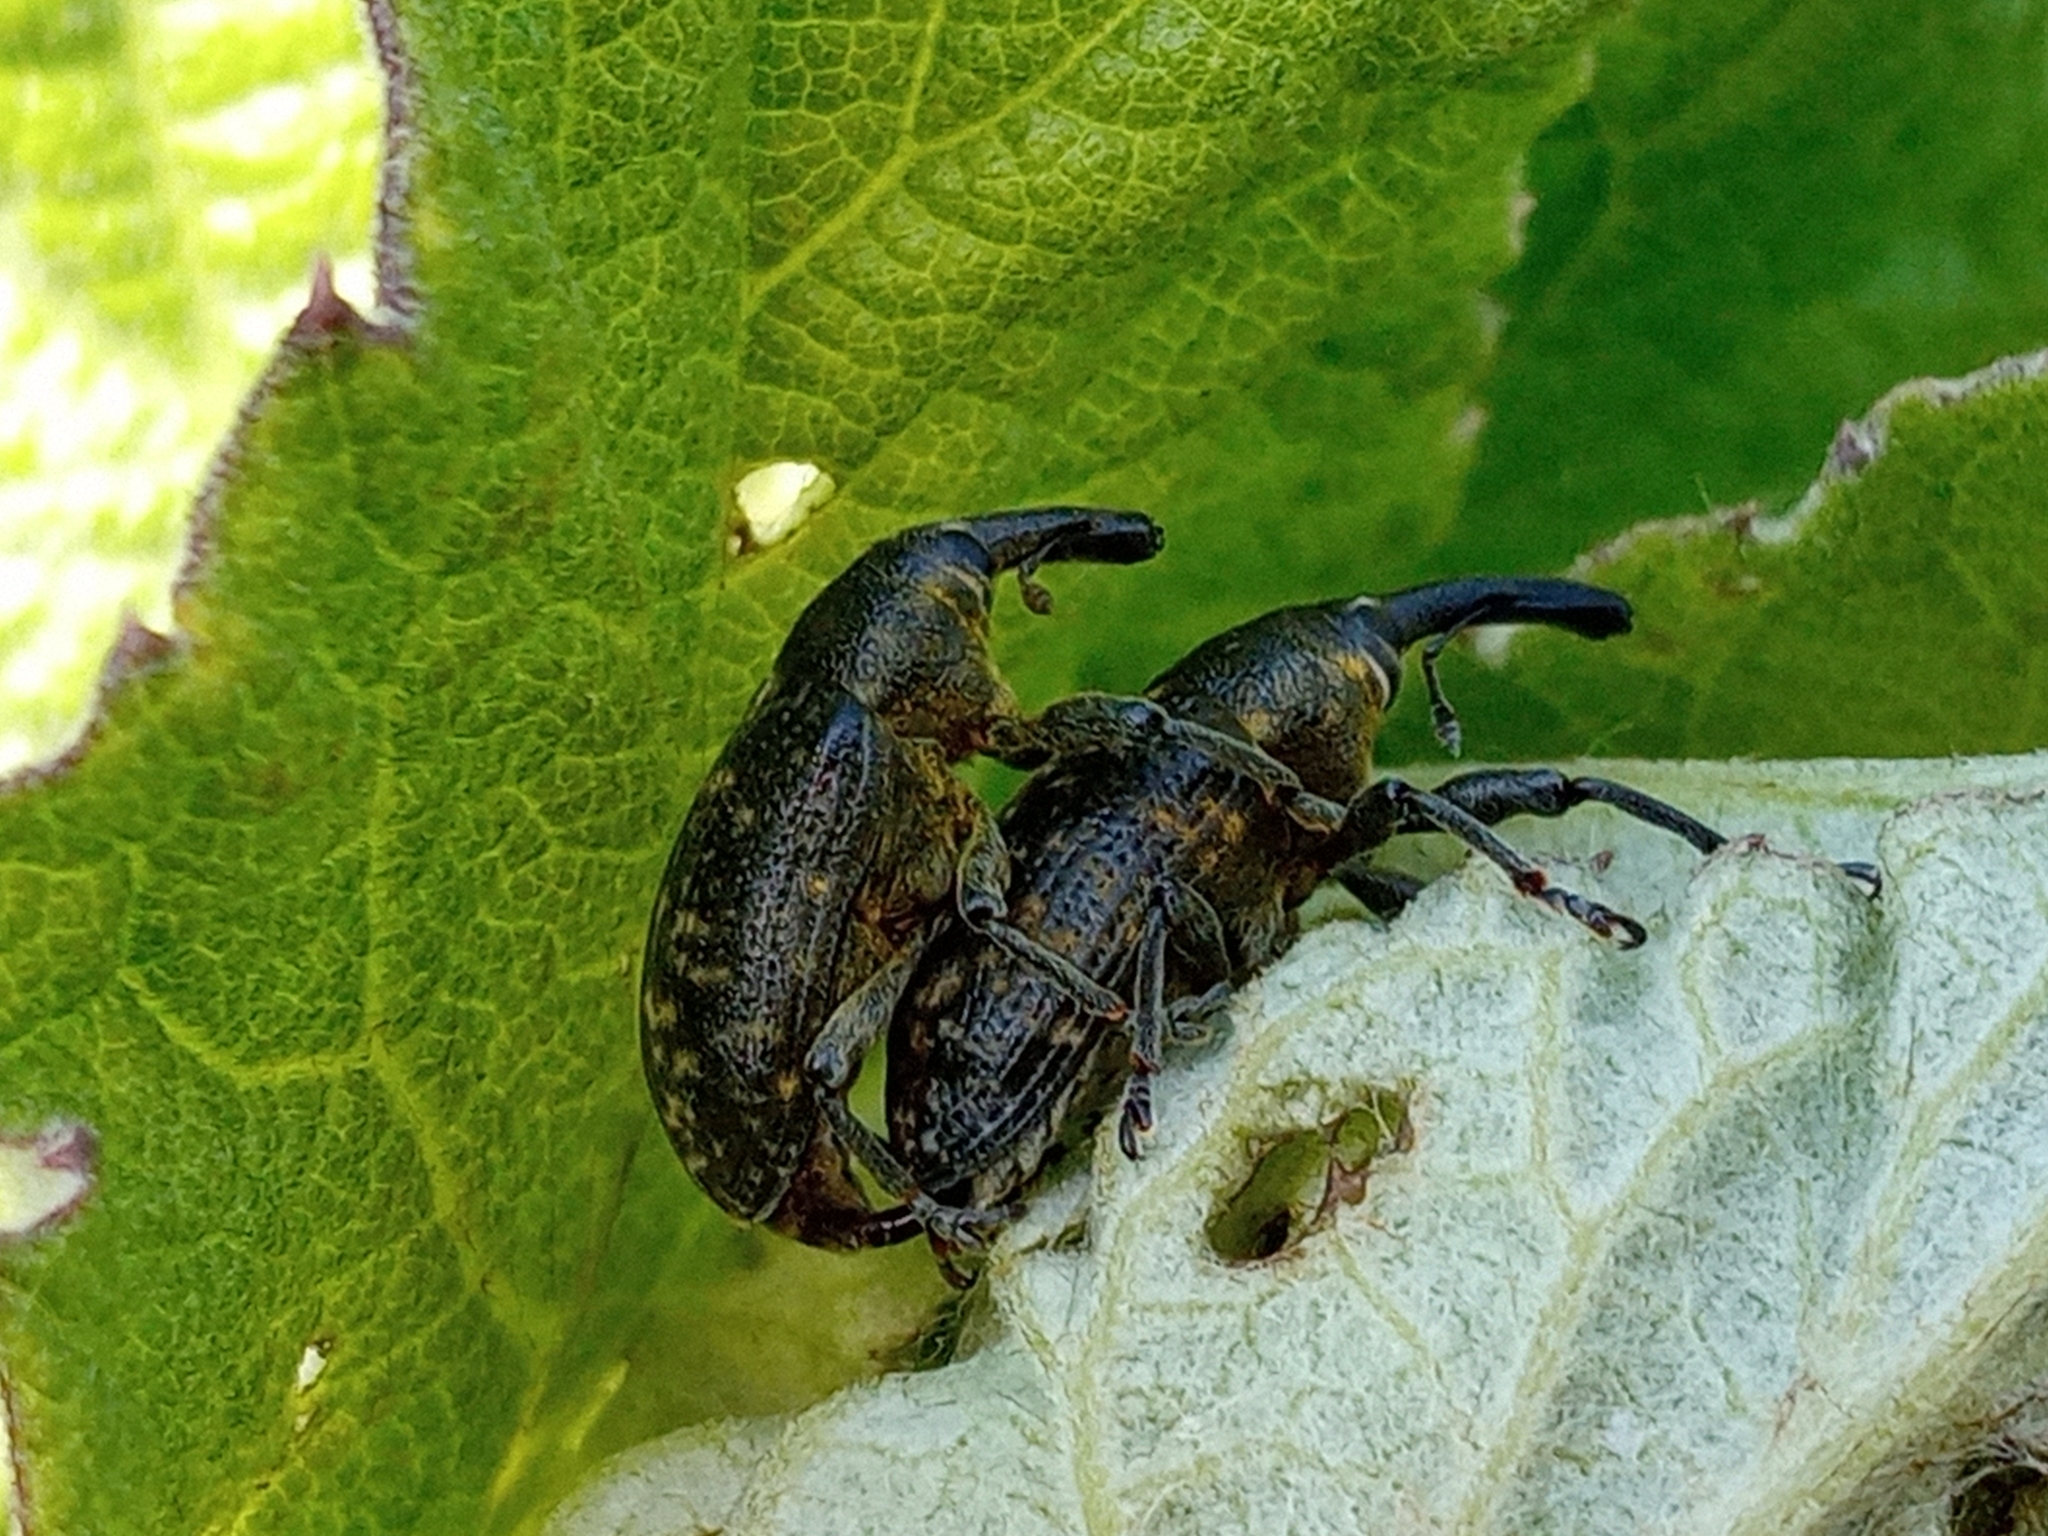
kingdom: Animalia
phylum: Arthropoda
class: Insecta
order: Coleoptera
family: Curculionidae
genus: Larinus
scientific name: Larinus sturnus
